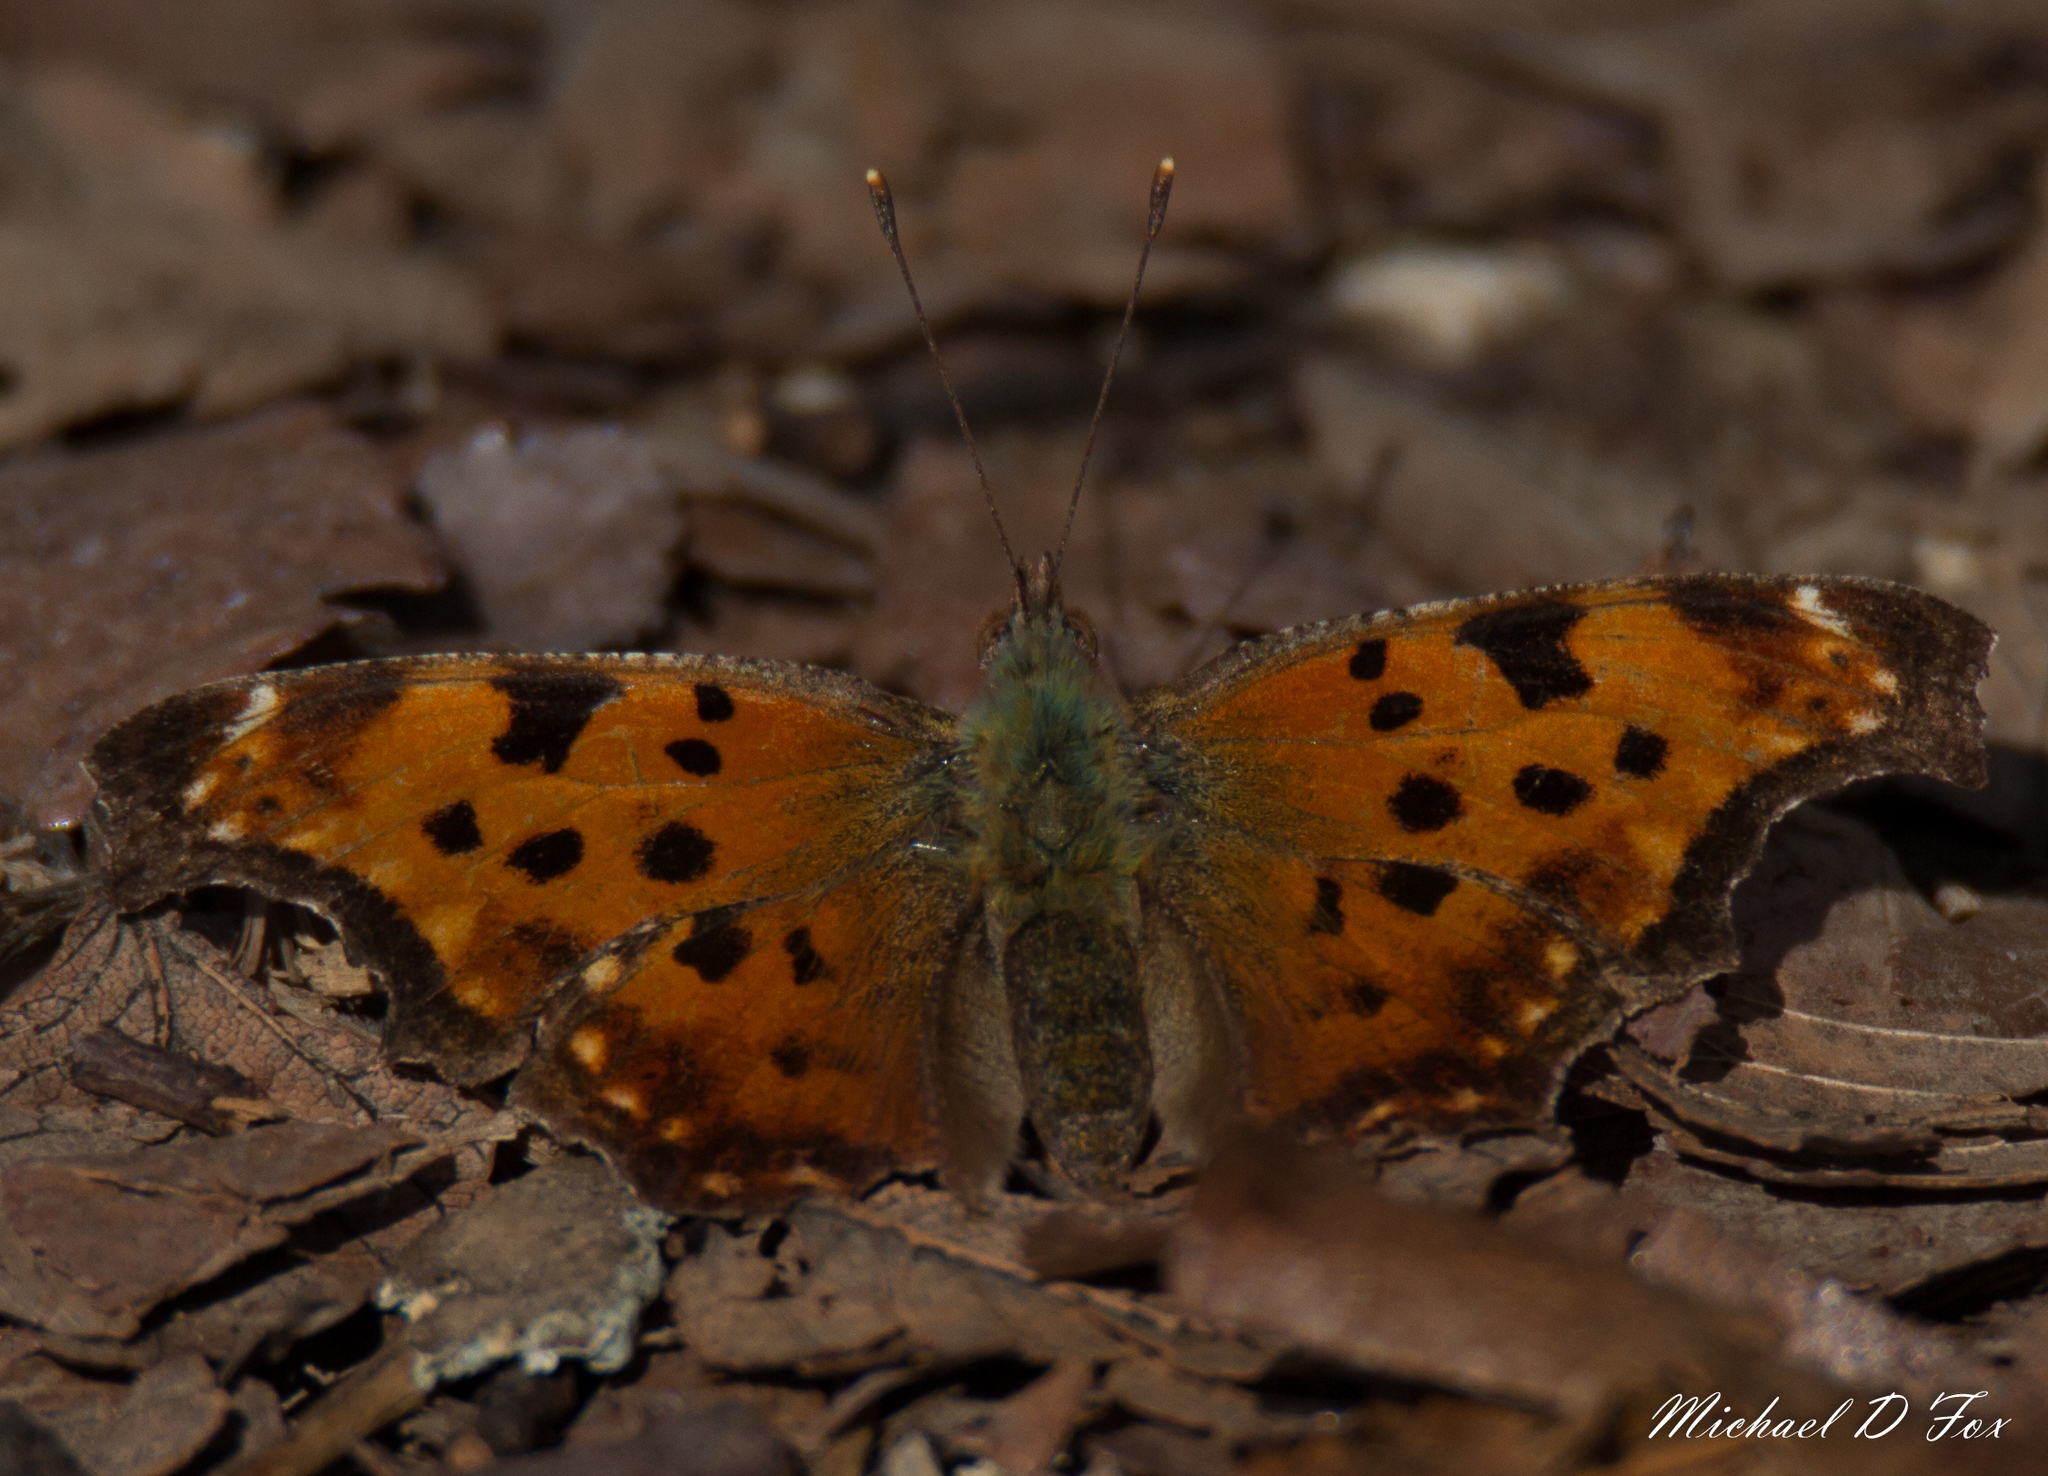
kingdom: Animalia
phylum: Arthropoda
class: Insecta
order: Lepidoptera
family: Nymphalidae
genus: Polygonia
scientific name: Polygonia comma
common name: Eastern comma
